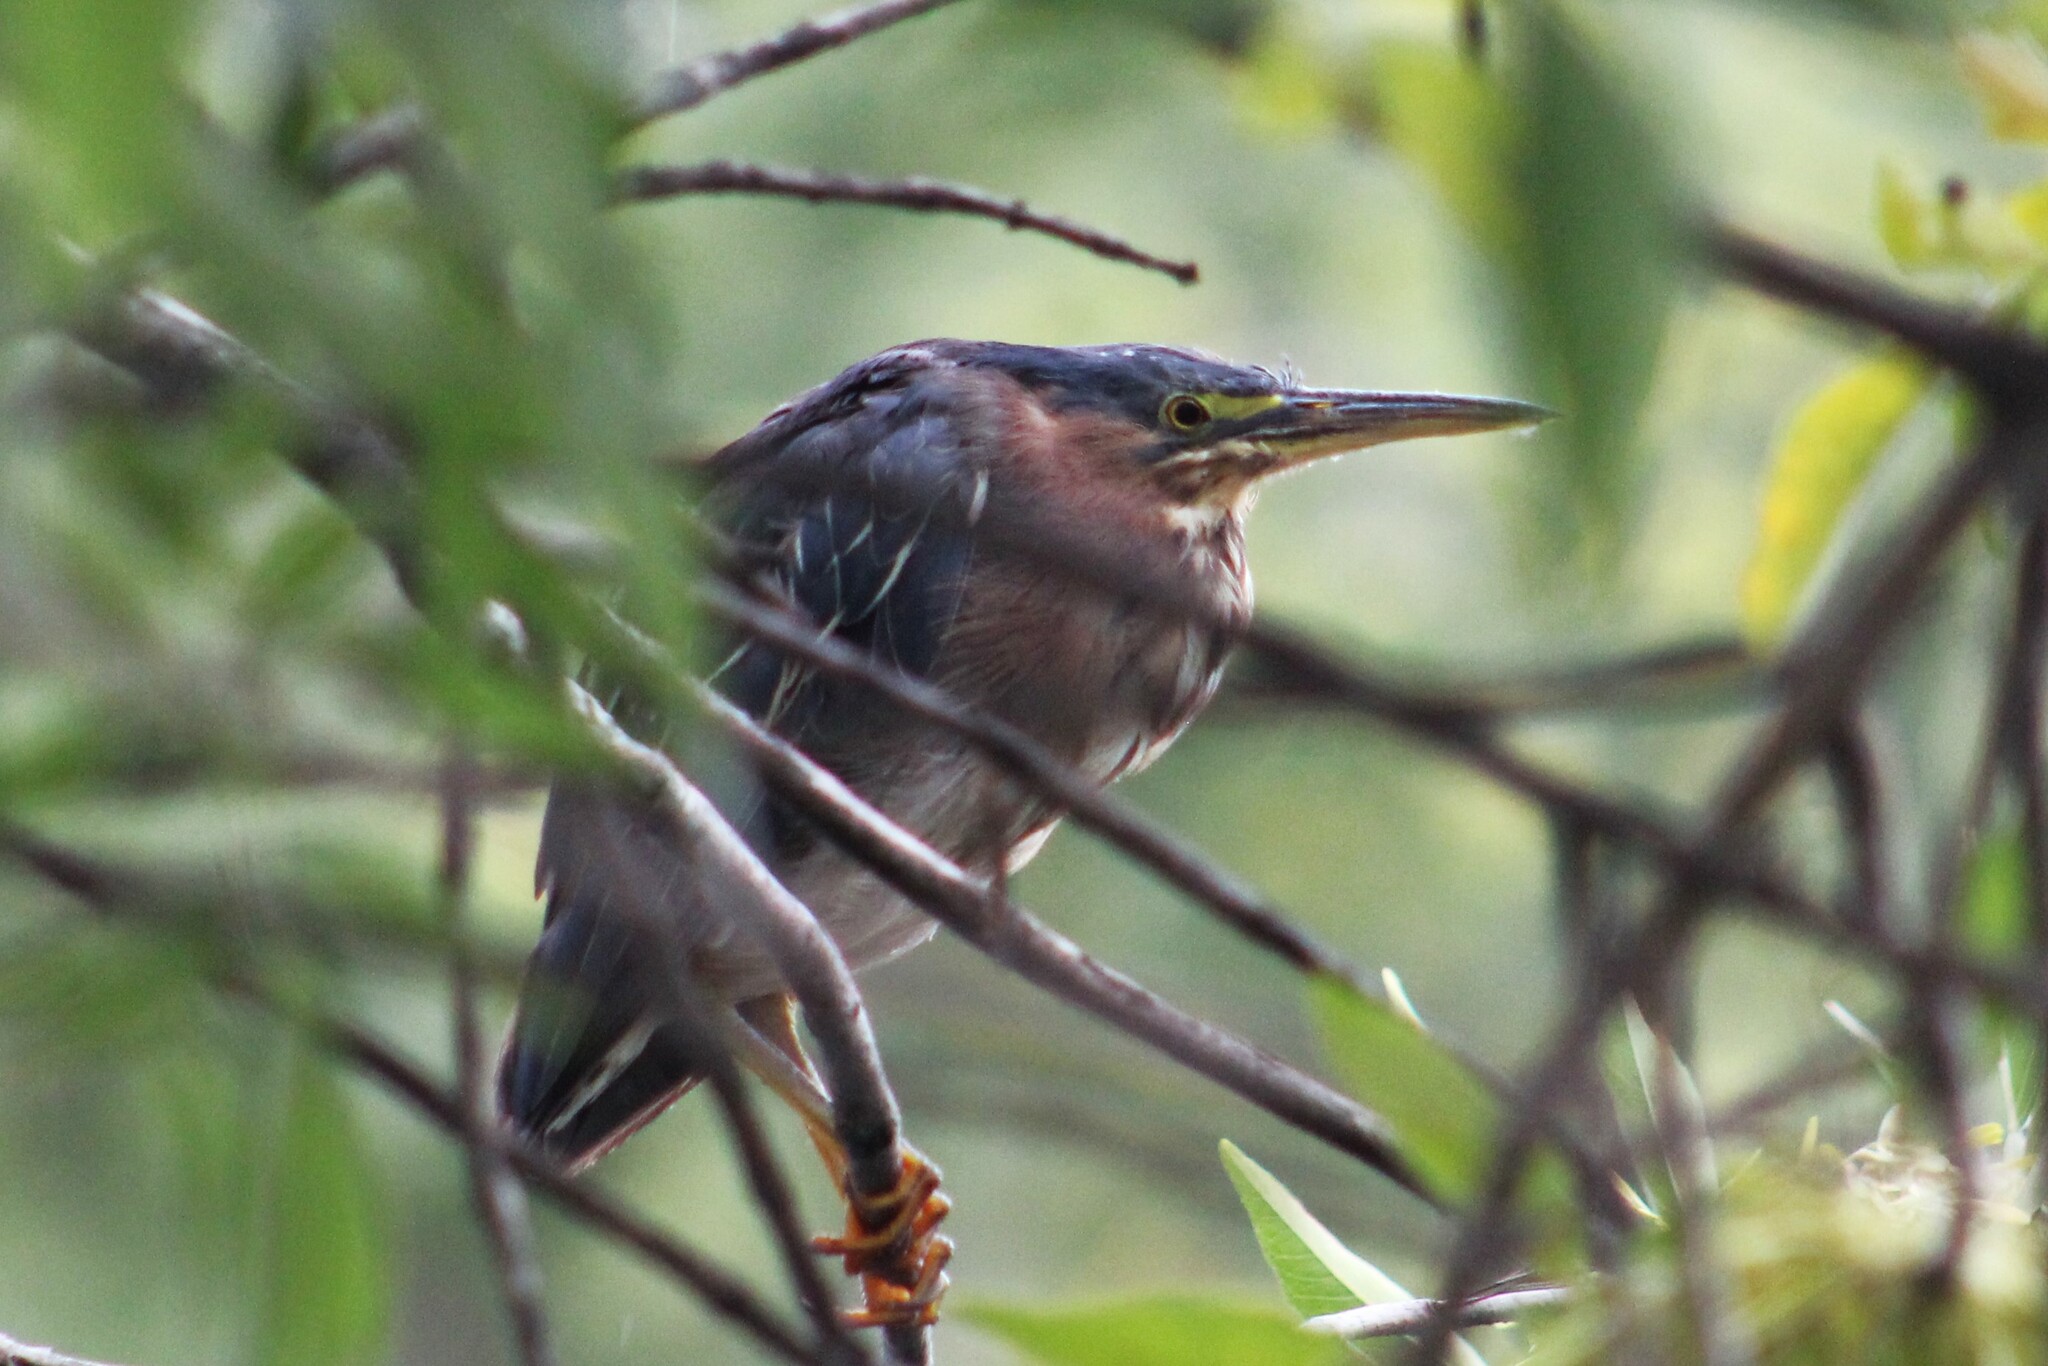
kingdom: Animalia
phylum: Chordata
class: Aves
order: Pelecaniformes
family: Ardeidae
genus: Butorides
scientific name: Butorides virescens
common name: Green heron
